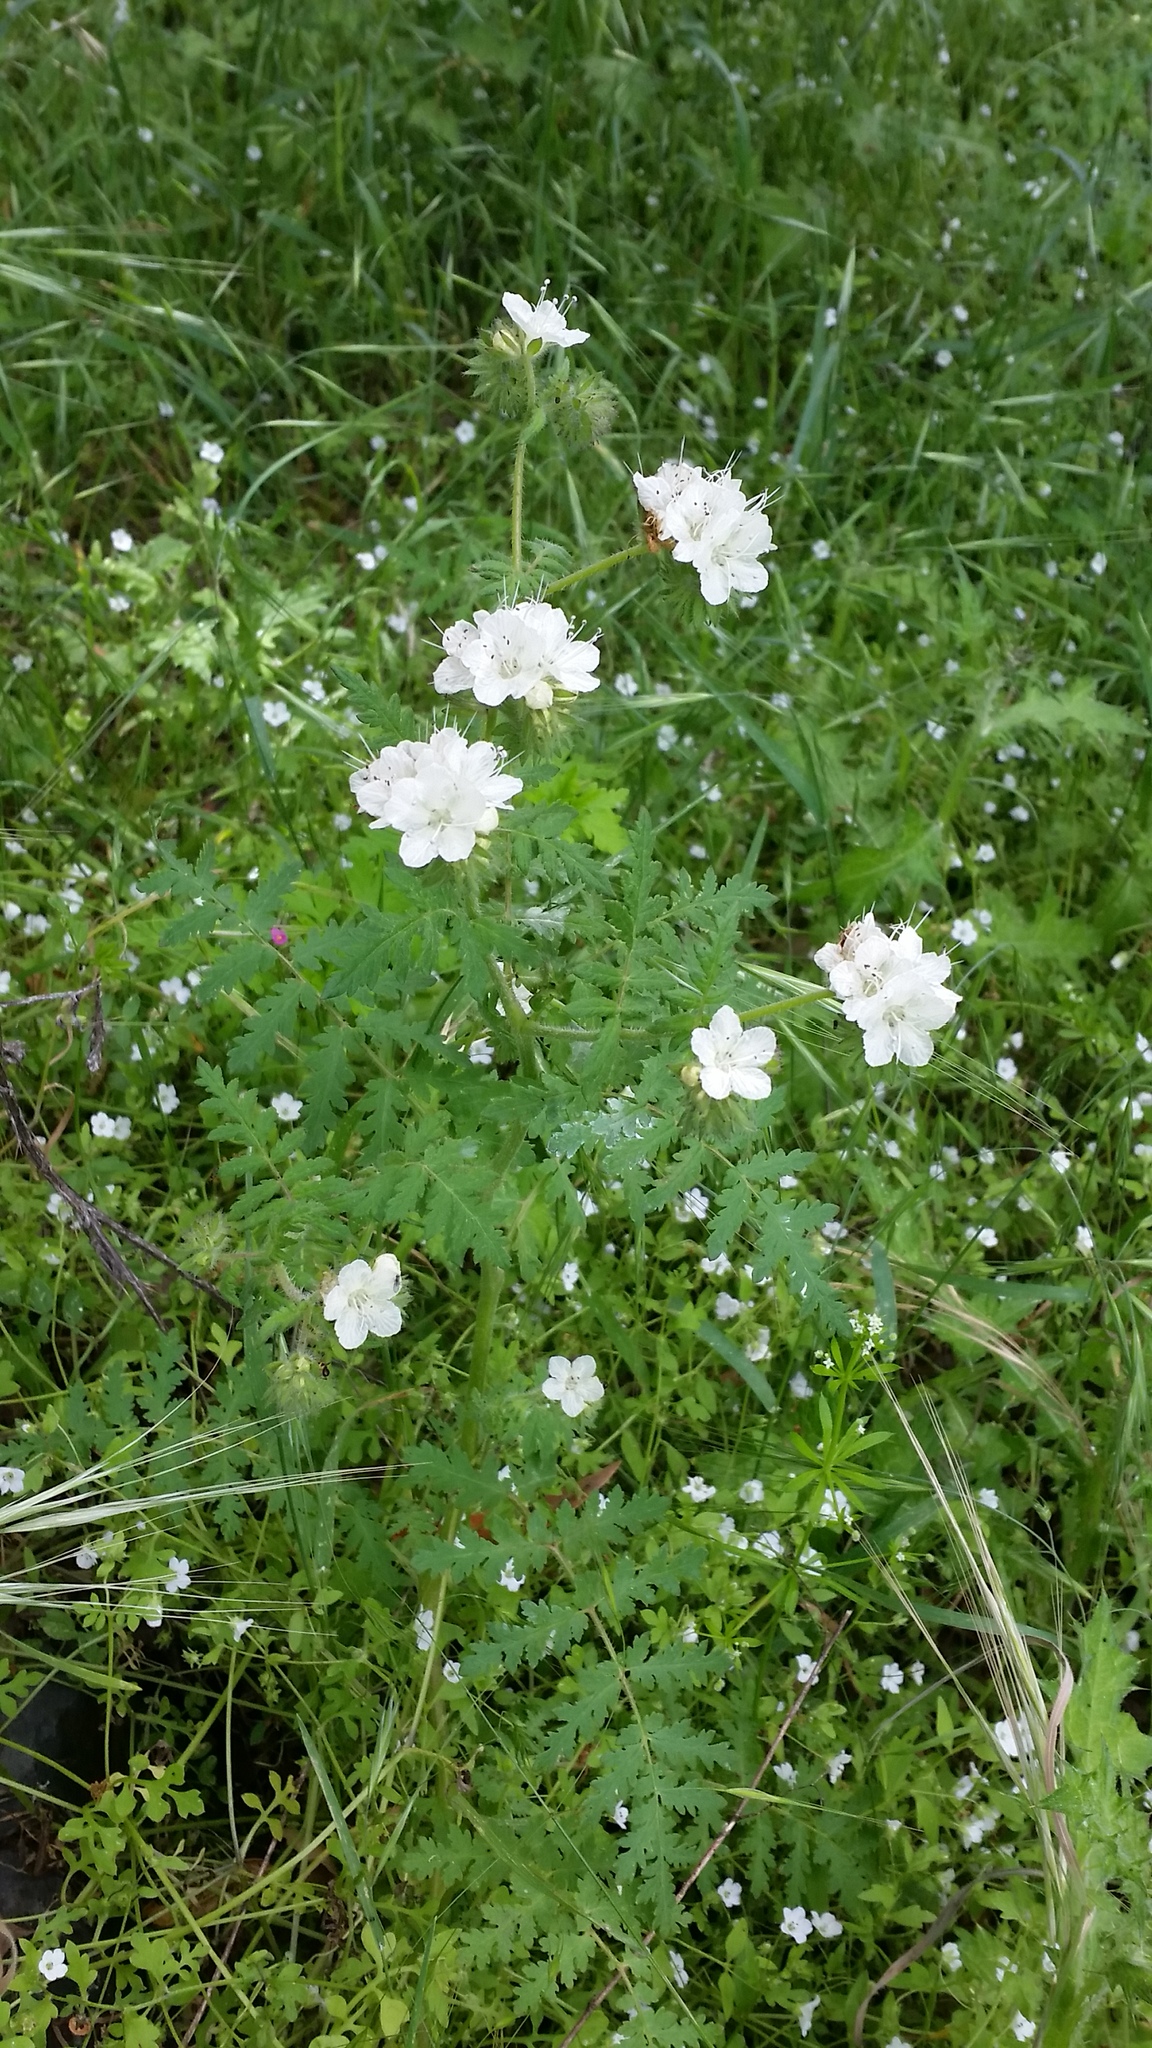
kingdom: Plantae
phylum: Tracheophyta
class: Magnoliopsida
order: Boraginales
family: Hydrophyllaceae
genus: Phacelia
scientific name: Phacelia distans
